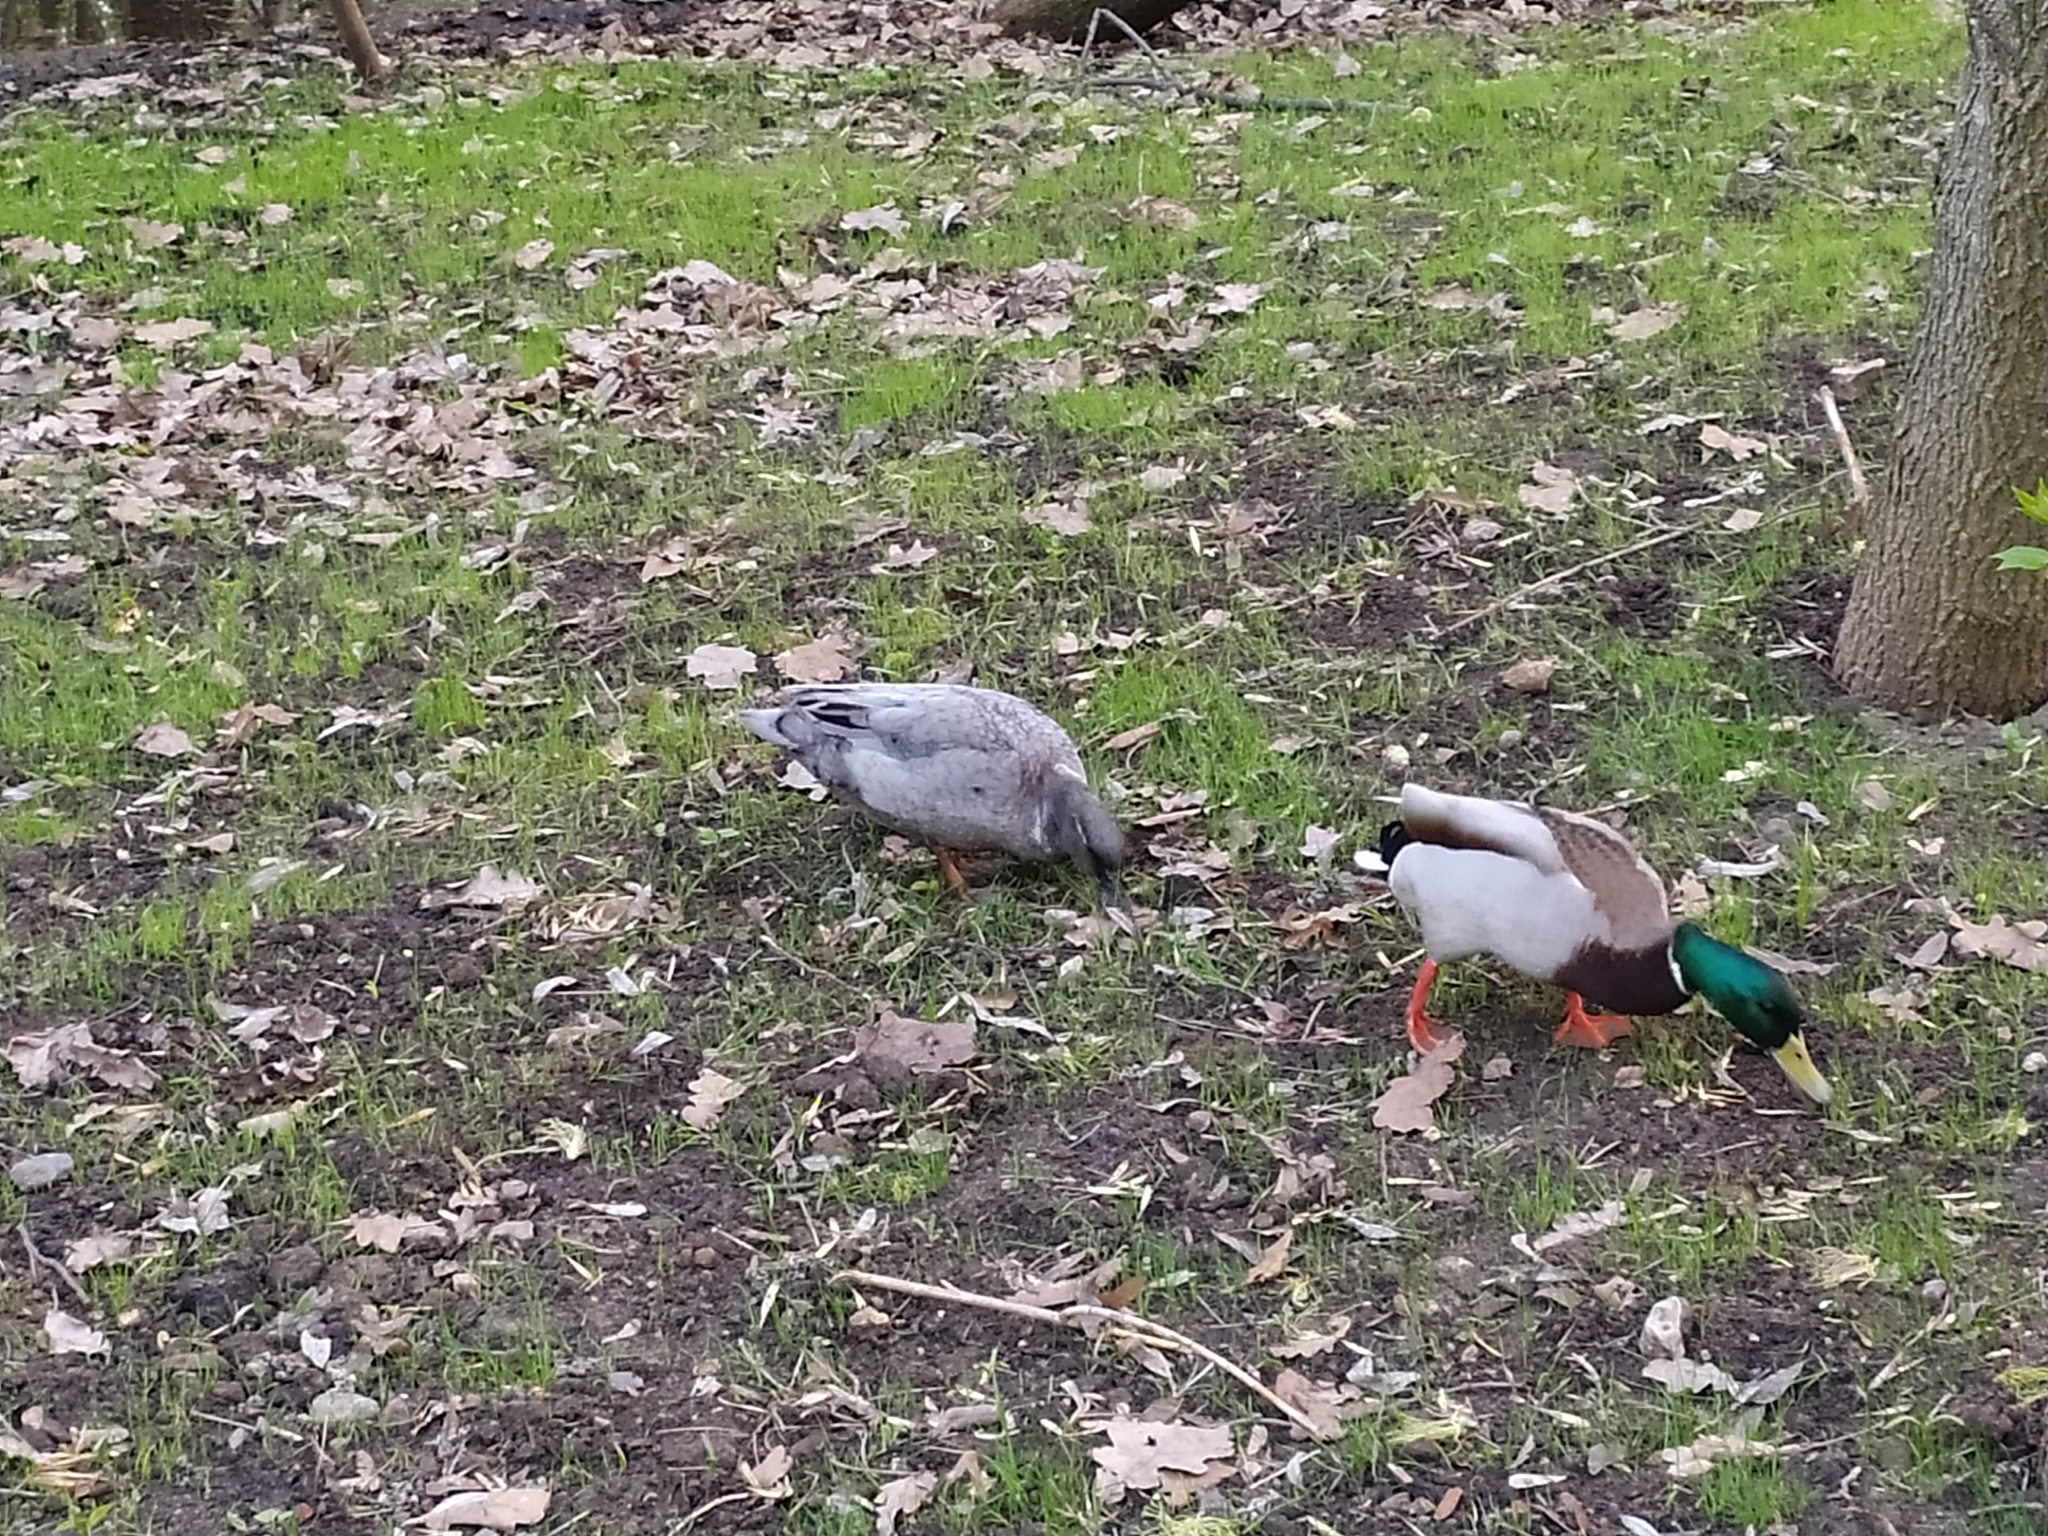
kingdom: Animalia
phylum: Chordata
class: Aves
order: Anseriformes
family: Anatidae
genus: Anas
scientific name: Anas platyrhynchos
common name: Mallard
